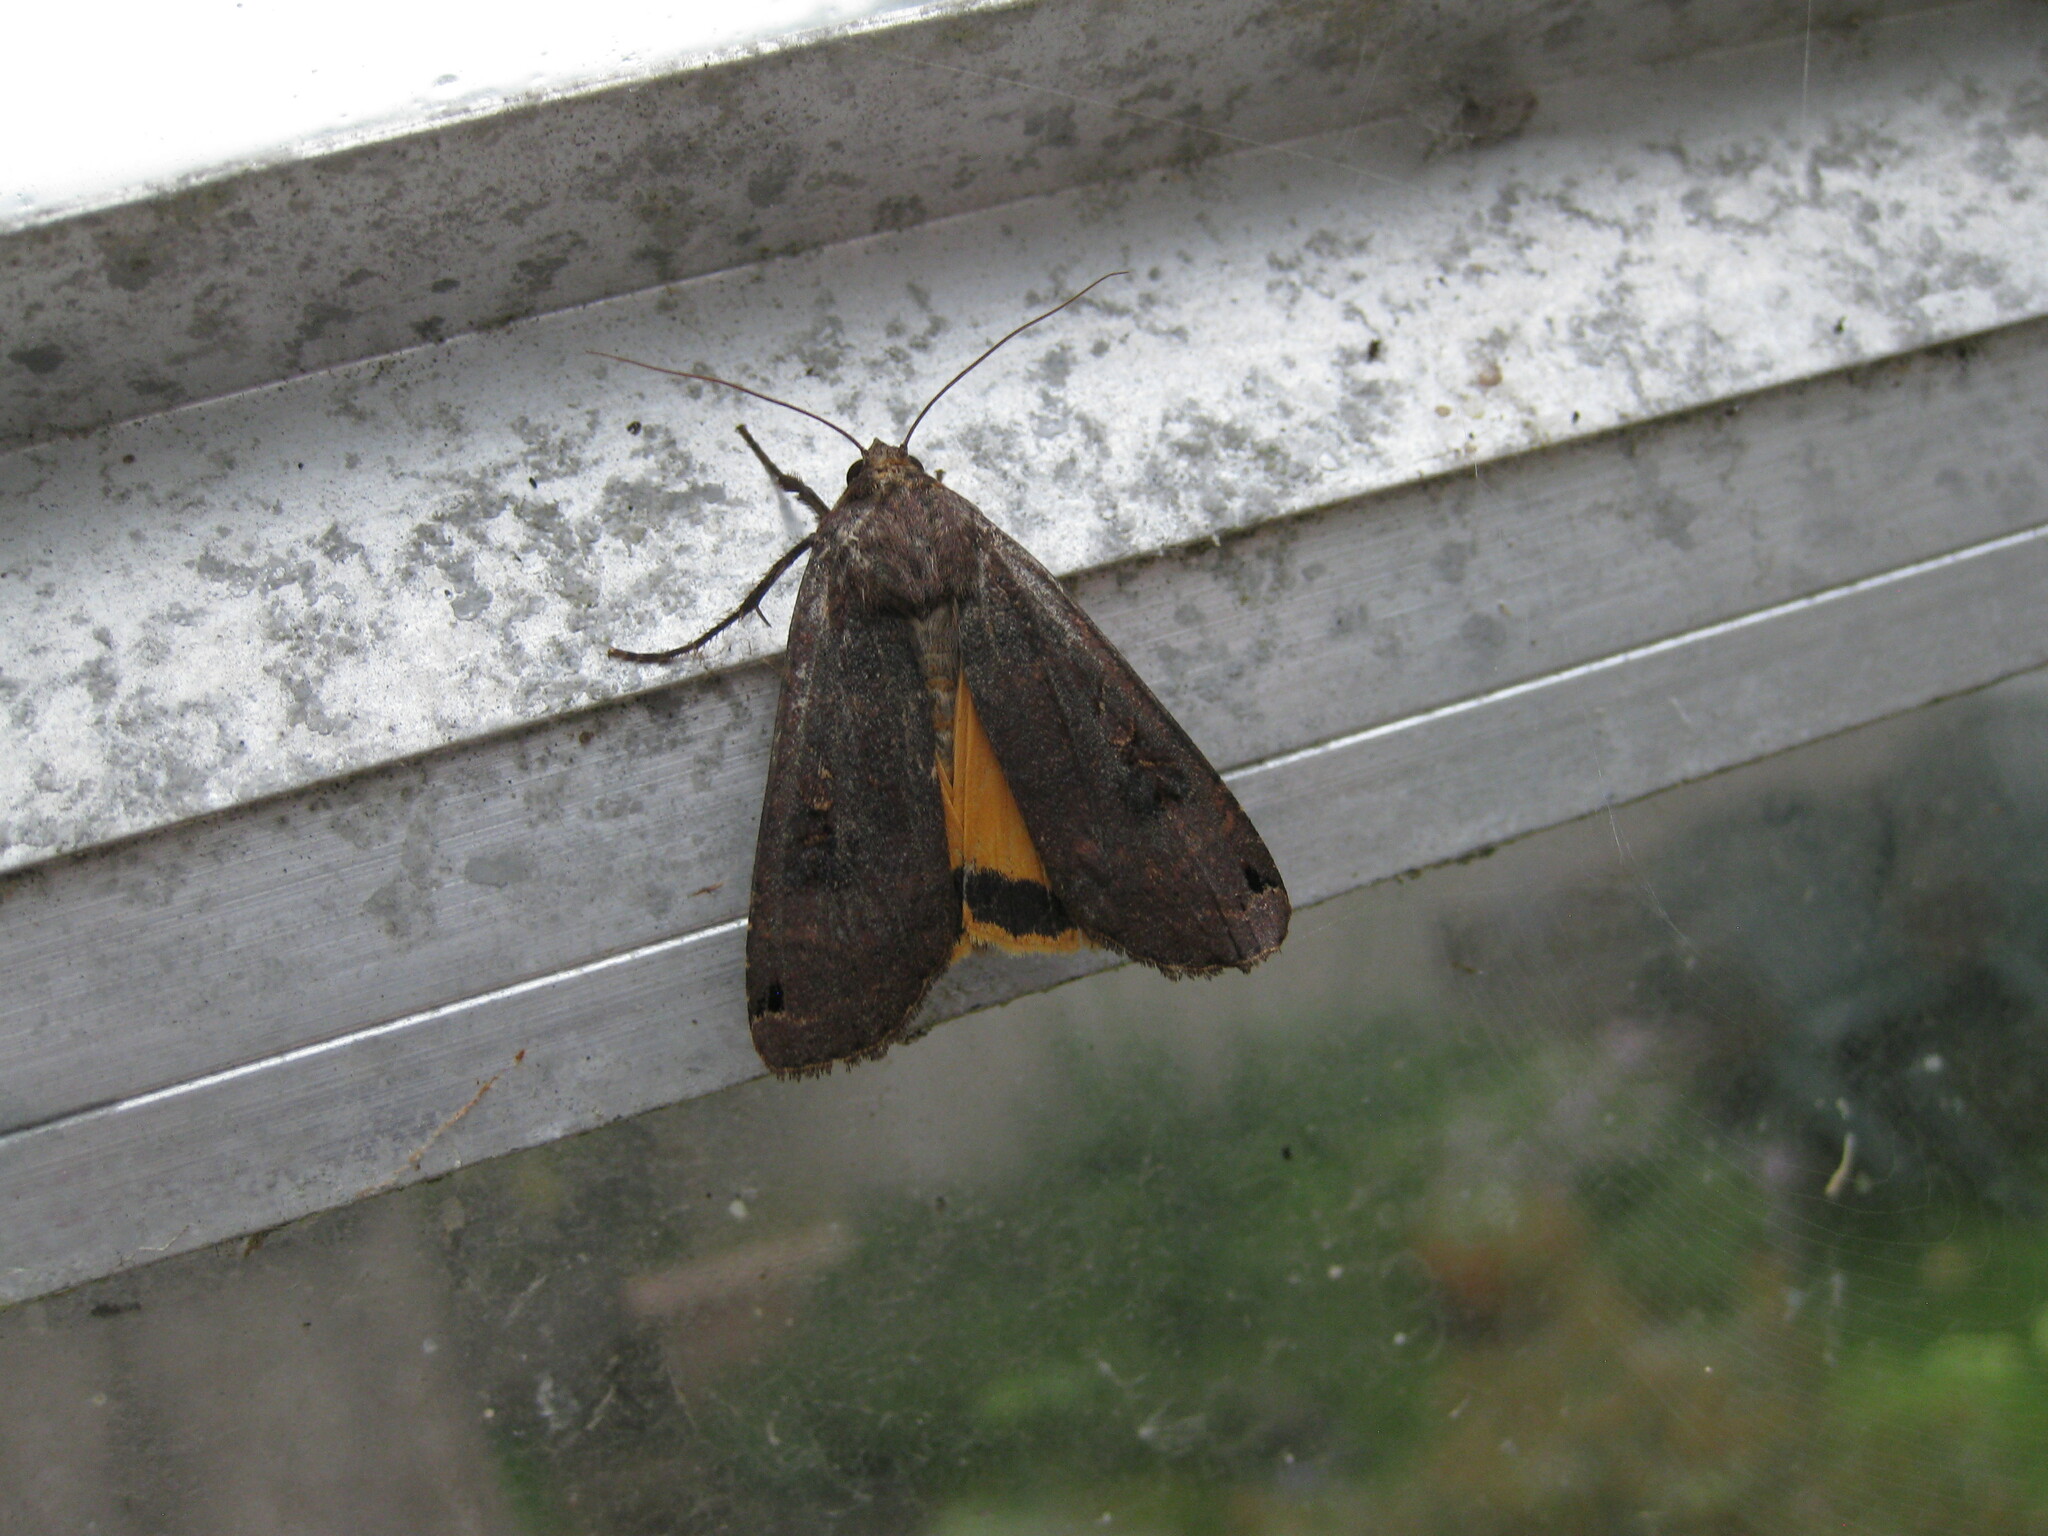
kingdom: Animalia
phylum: Arthropoda
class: Insecta
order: Lepidoptera
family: Noctuidae
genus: Noctua
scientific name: Noctua pronuba
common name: Large yellow underwing
